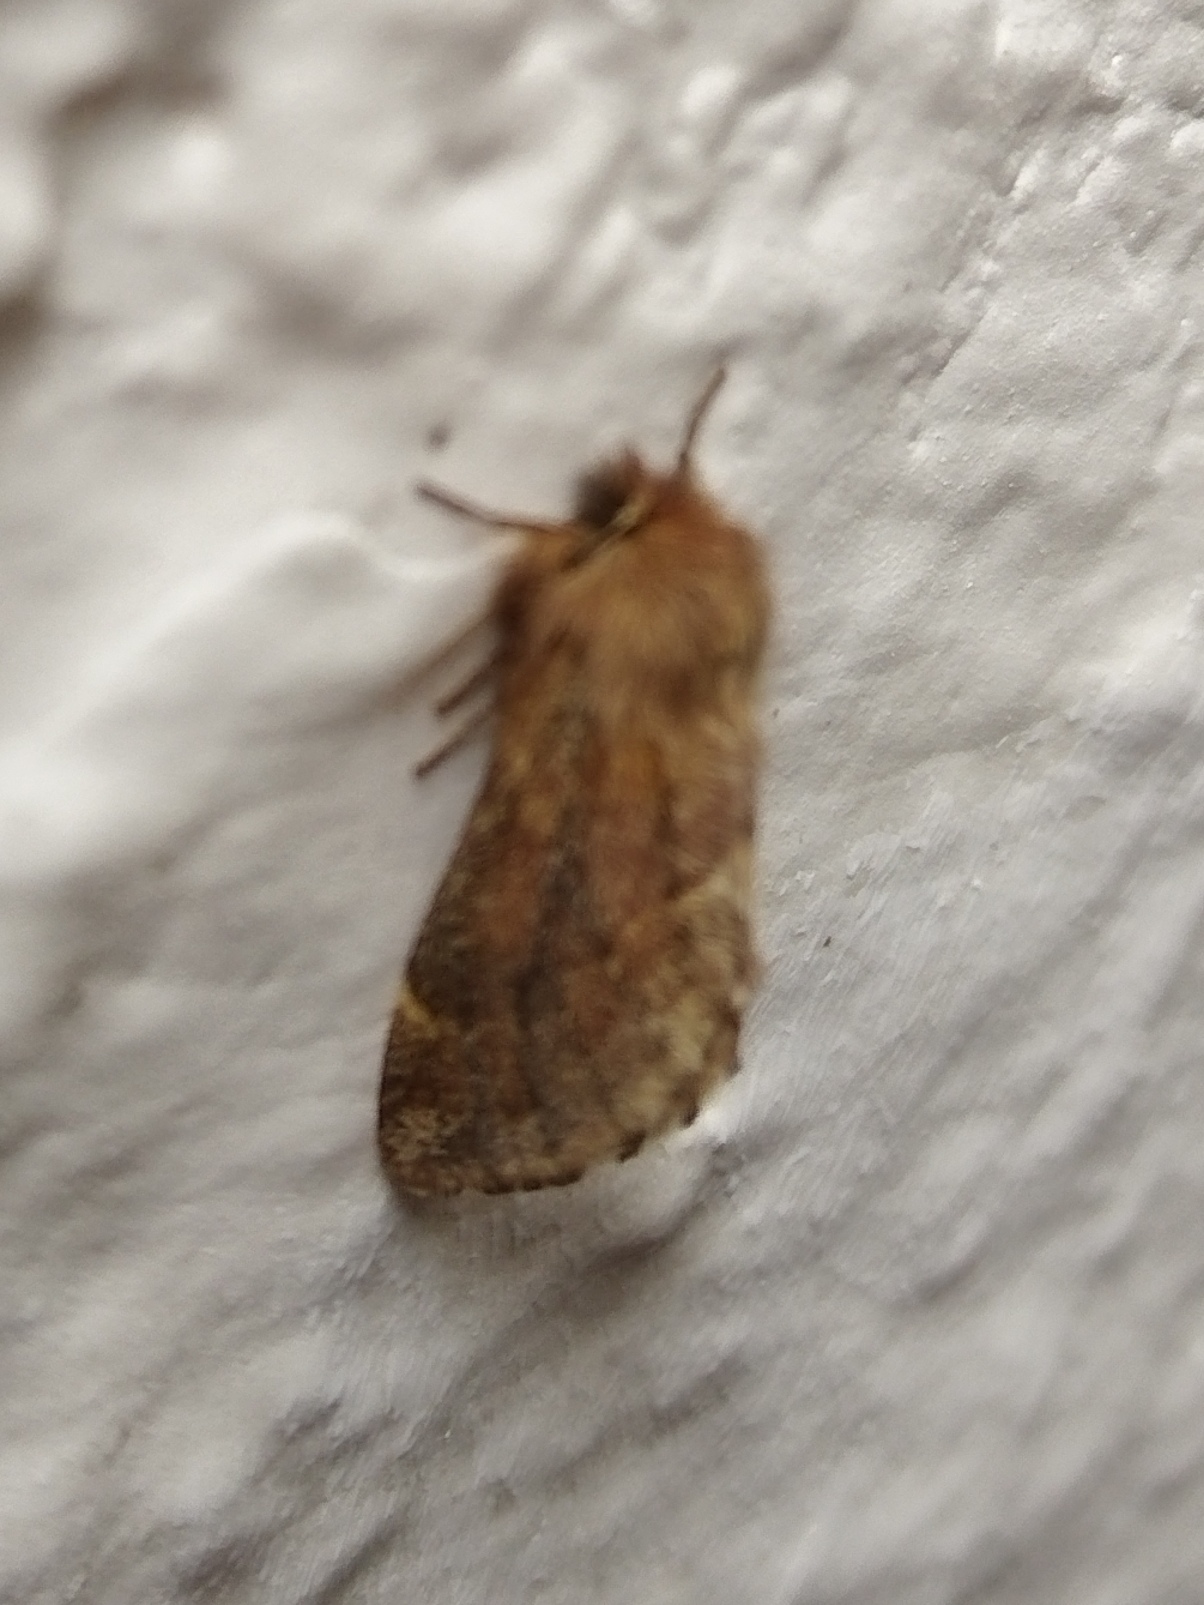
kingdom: Animalia
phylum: Arthropoda
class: Insecta
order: Lepidoptera
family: Notodontidae
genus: Ptilophora
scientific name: Ptilophora plumigera
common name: Plumed prominent
